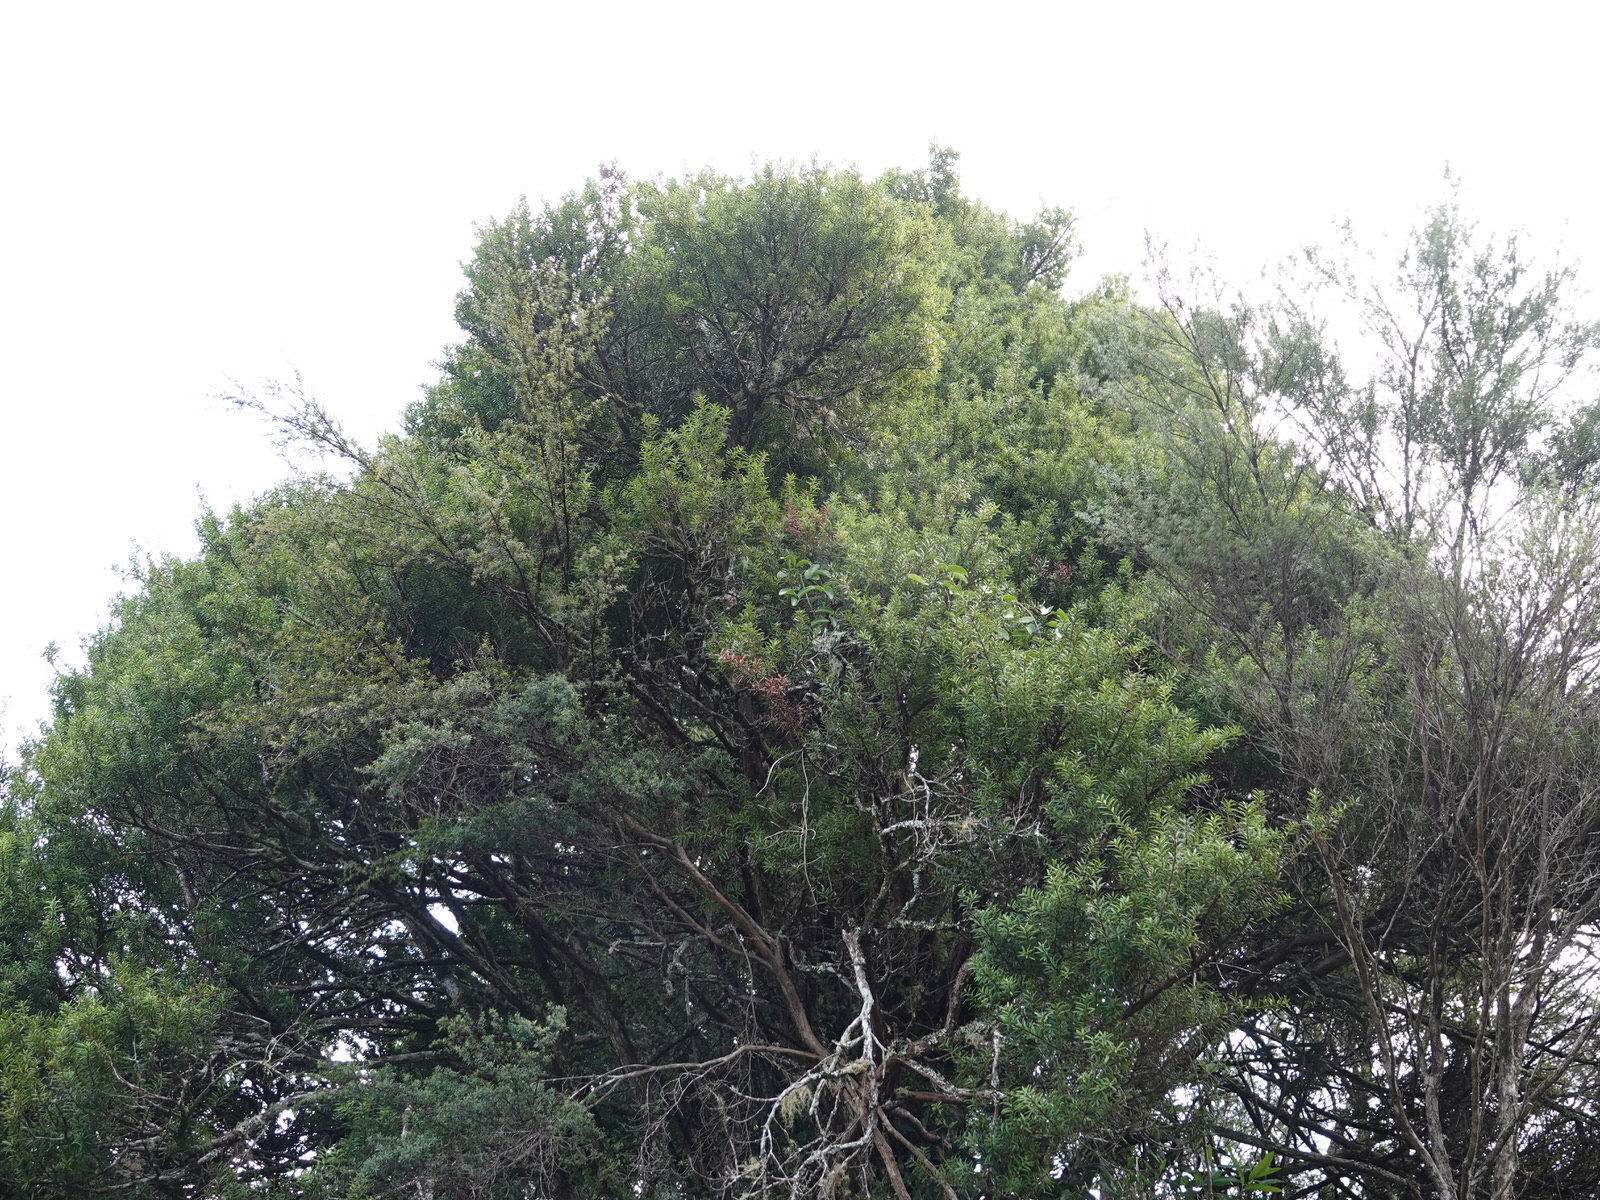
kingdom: Plantae
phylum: Tracheophyta
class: Magnoliopsida
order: Ranunculales
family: Ranunculaceae
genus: Clematis
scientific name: Clematis paniculata
